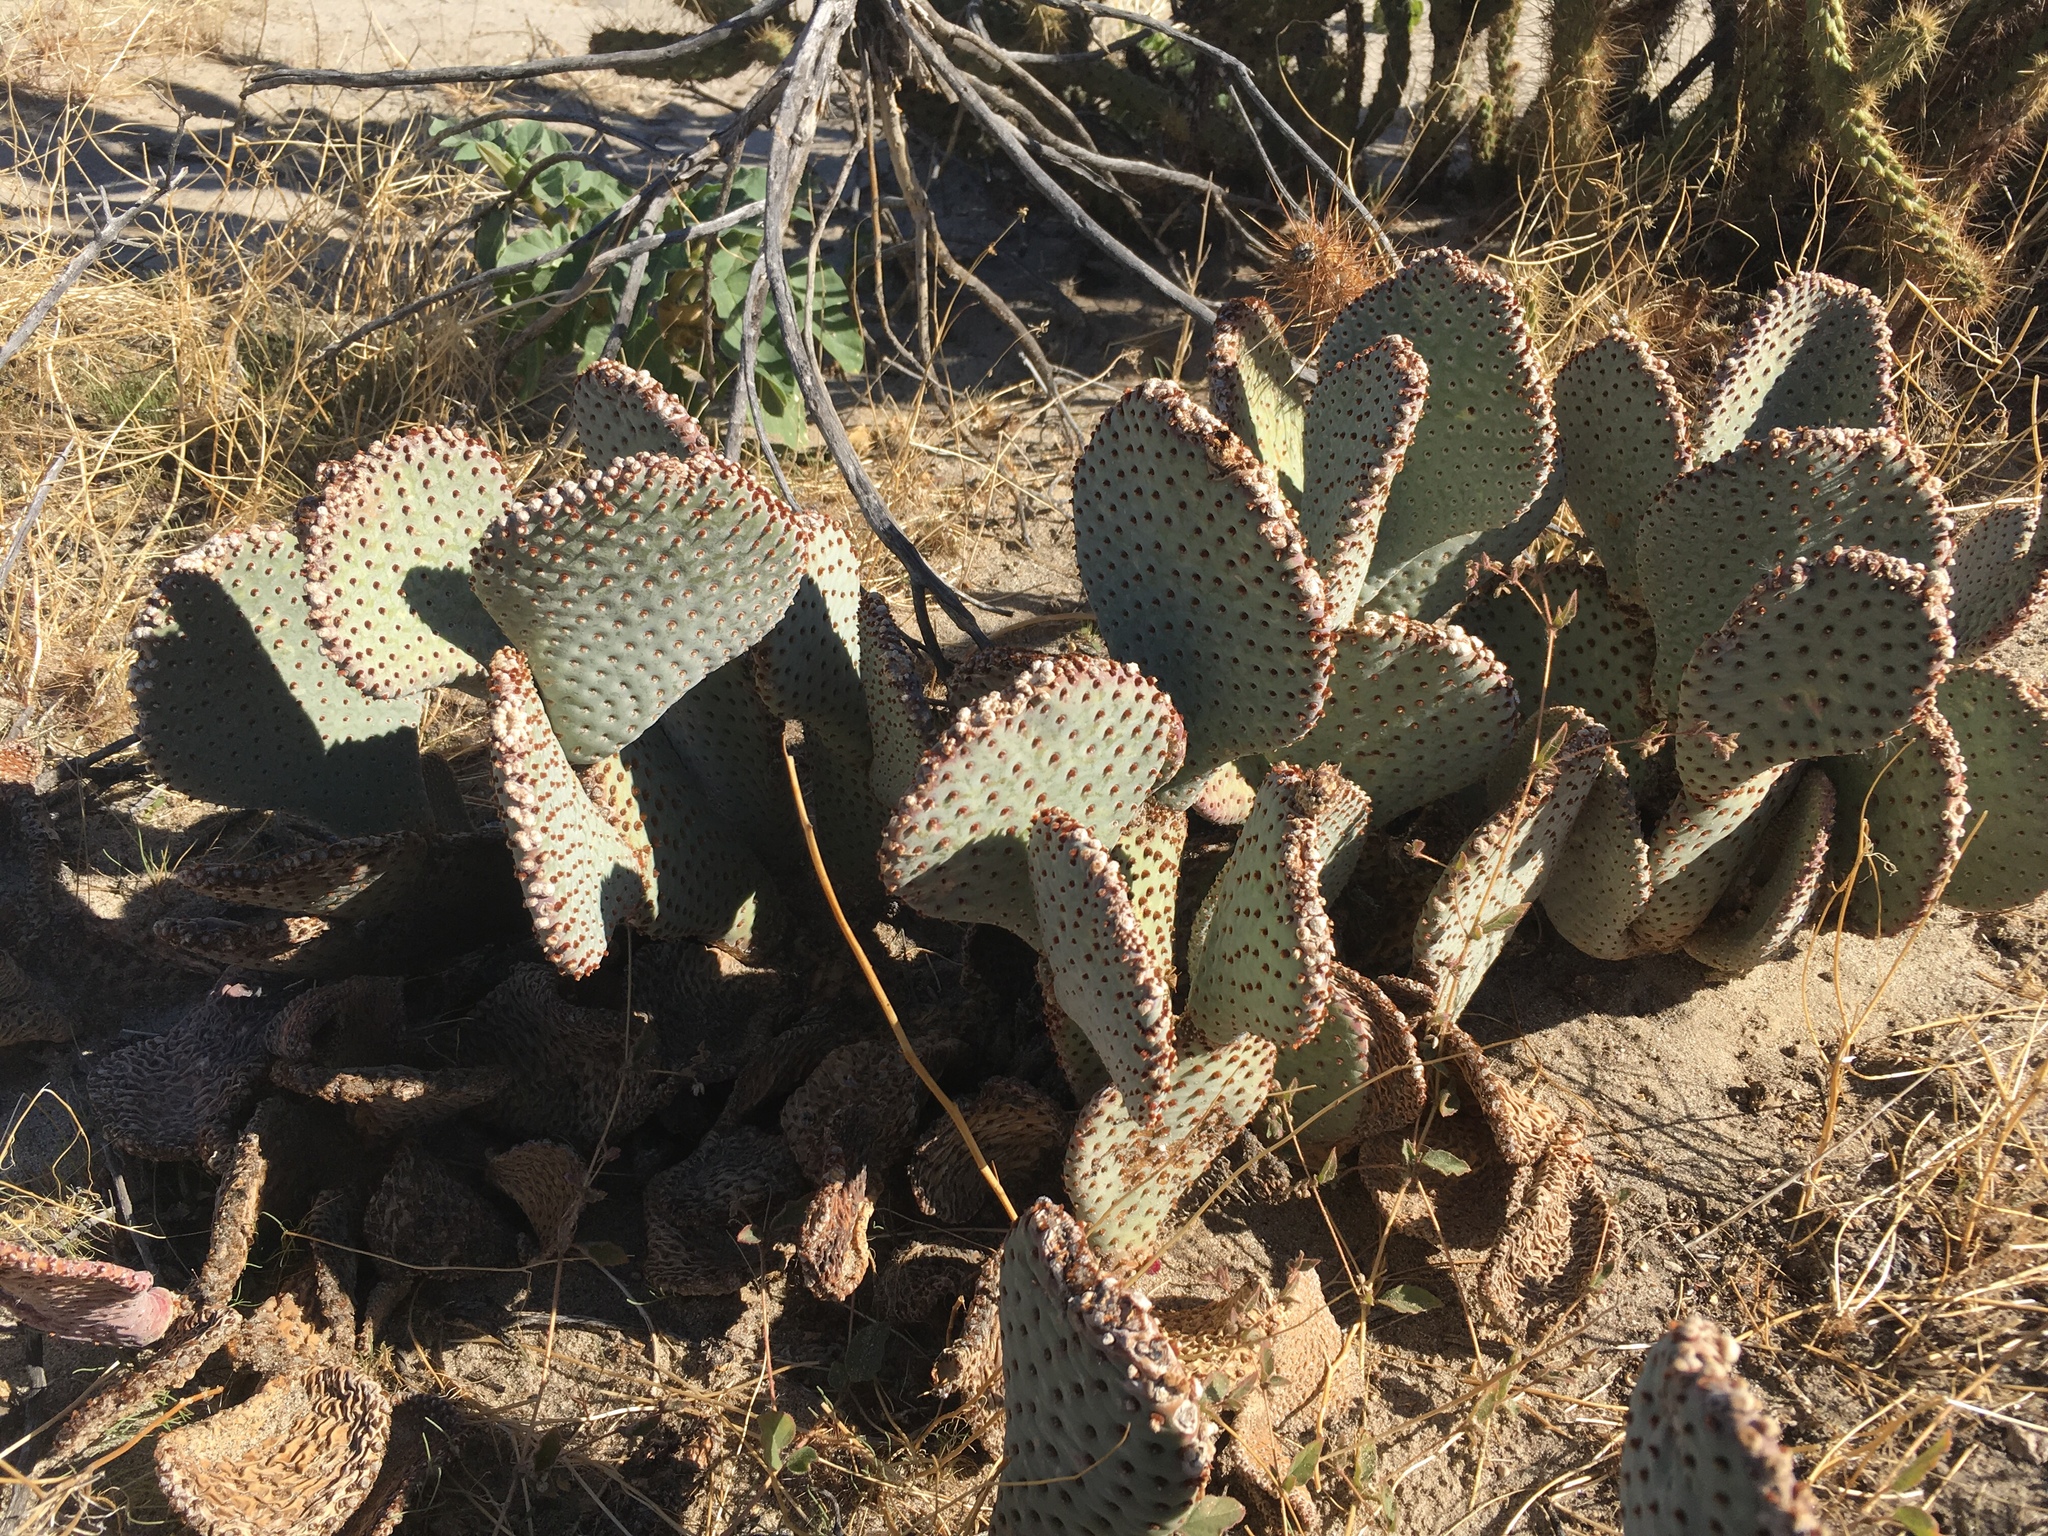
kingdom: Plantae
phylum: Tracheophyta
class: Magnoliopsida
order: Caryophyllales
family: Cactaceae
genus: Opuntia
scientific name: Opuntia basilaris
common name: Beavertail prickly-pear
